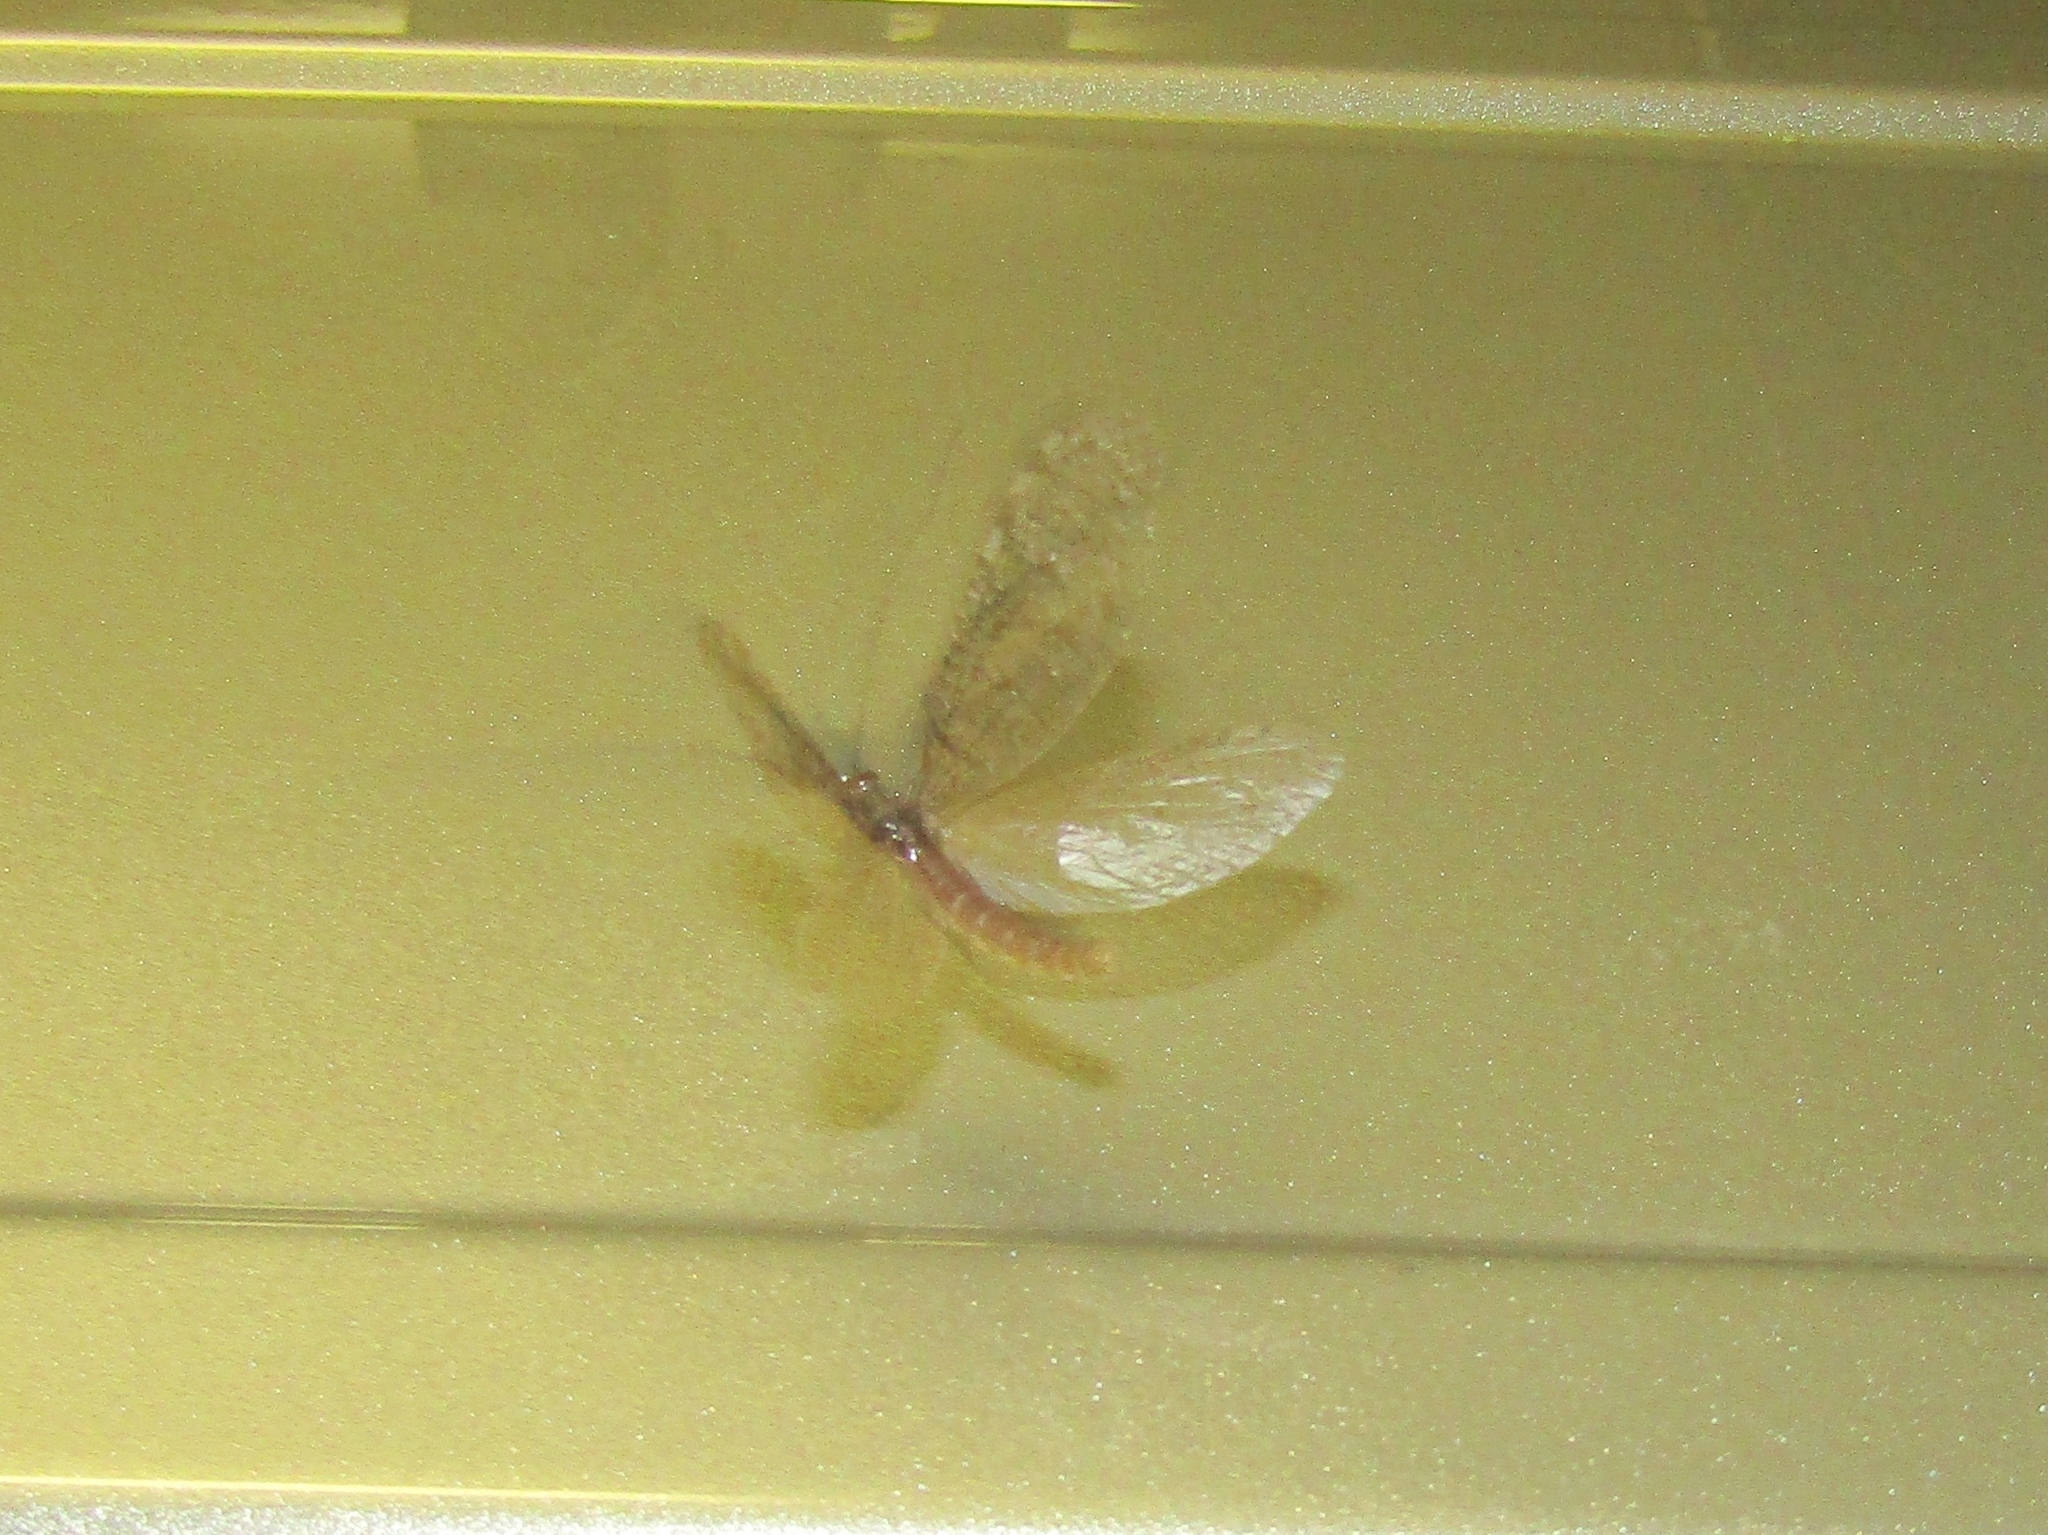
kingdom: Animalia
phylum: Arthropoda
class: Insecta
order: Megaloptera
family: Corydalidae
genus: Neohermes
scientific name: Neohermes
